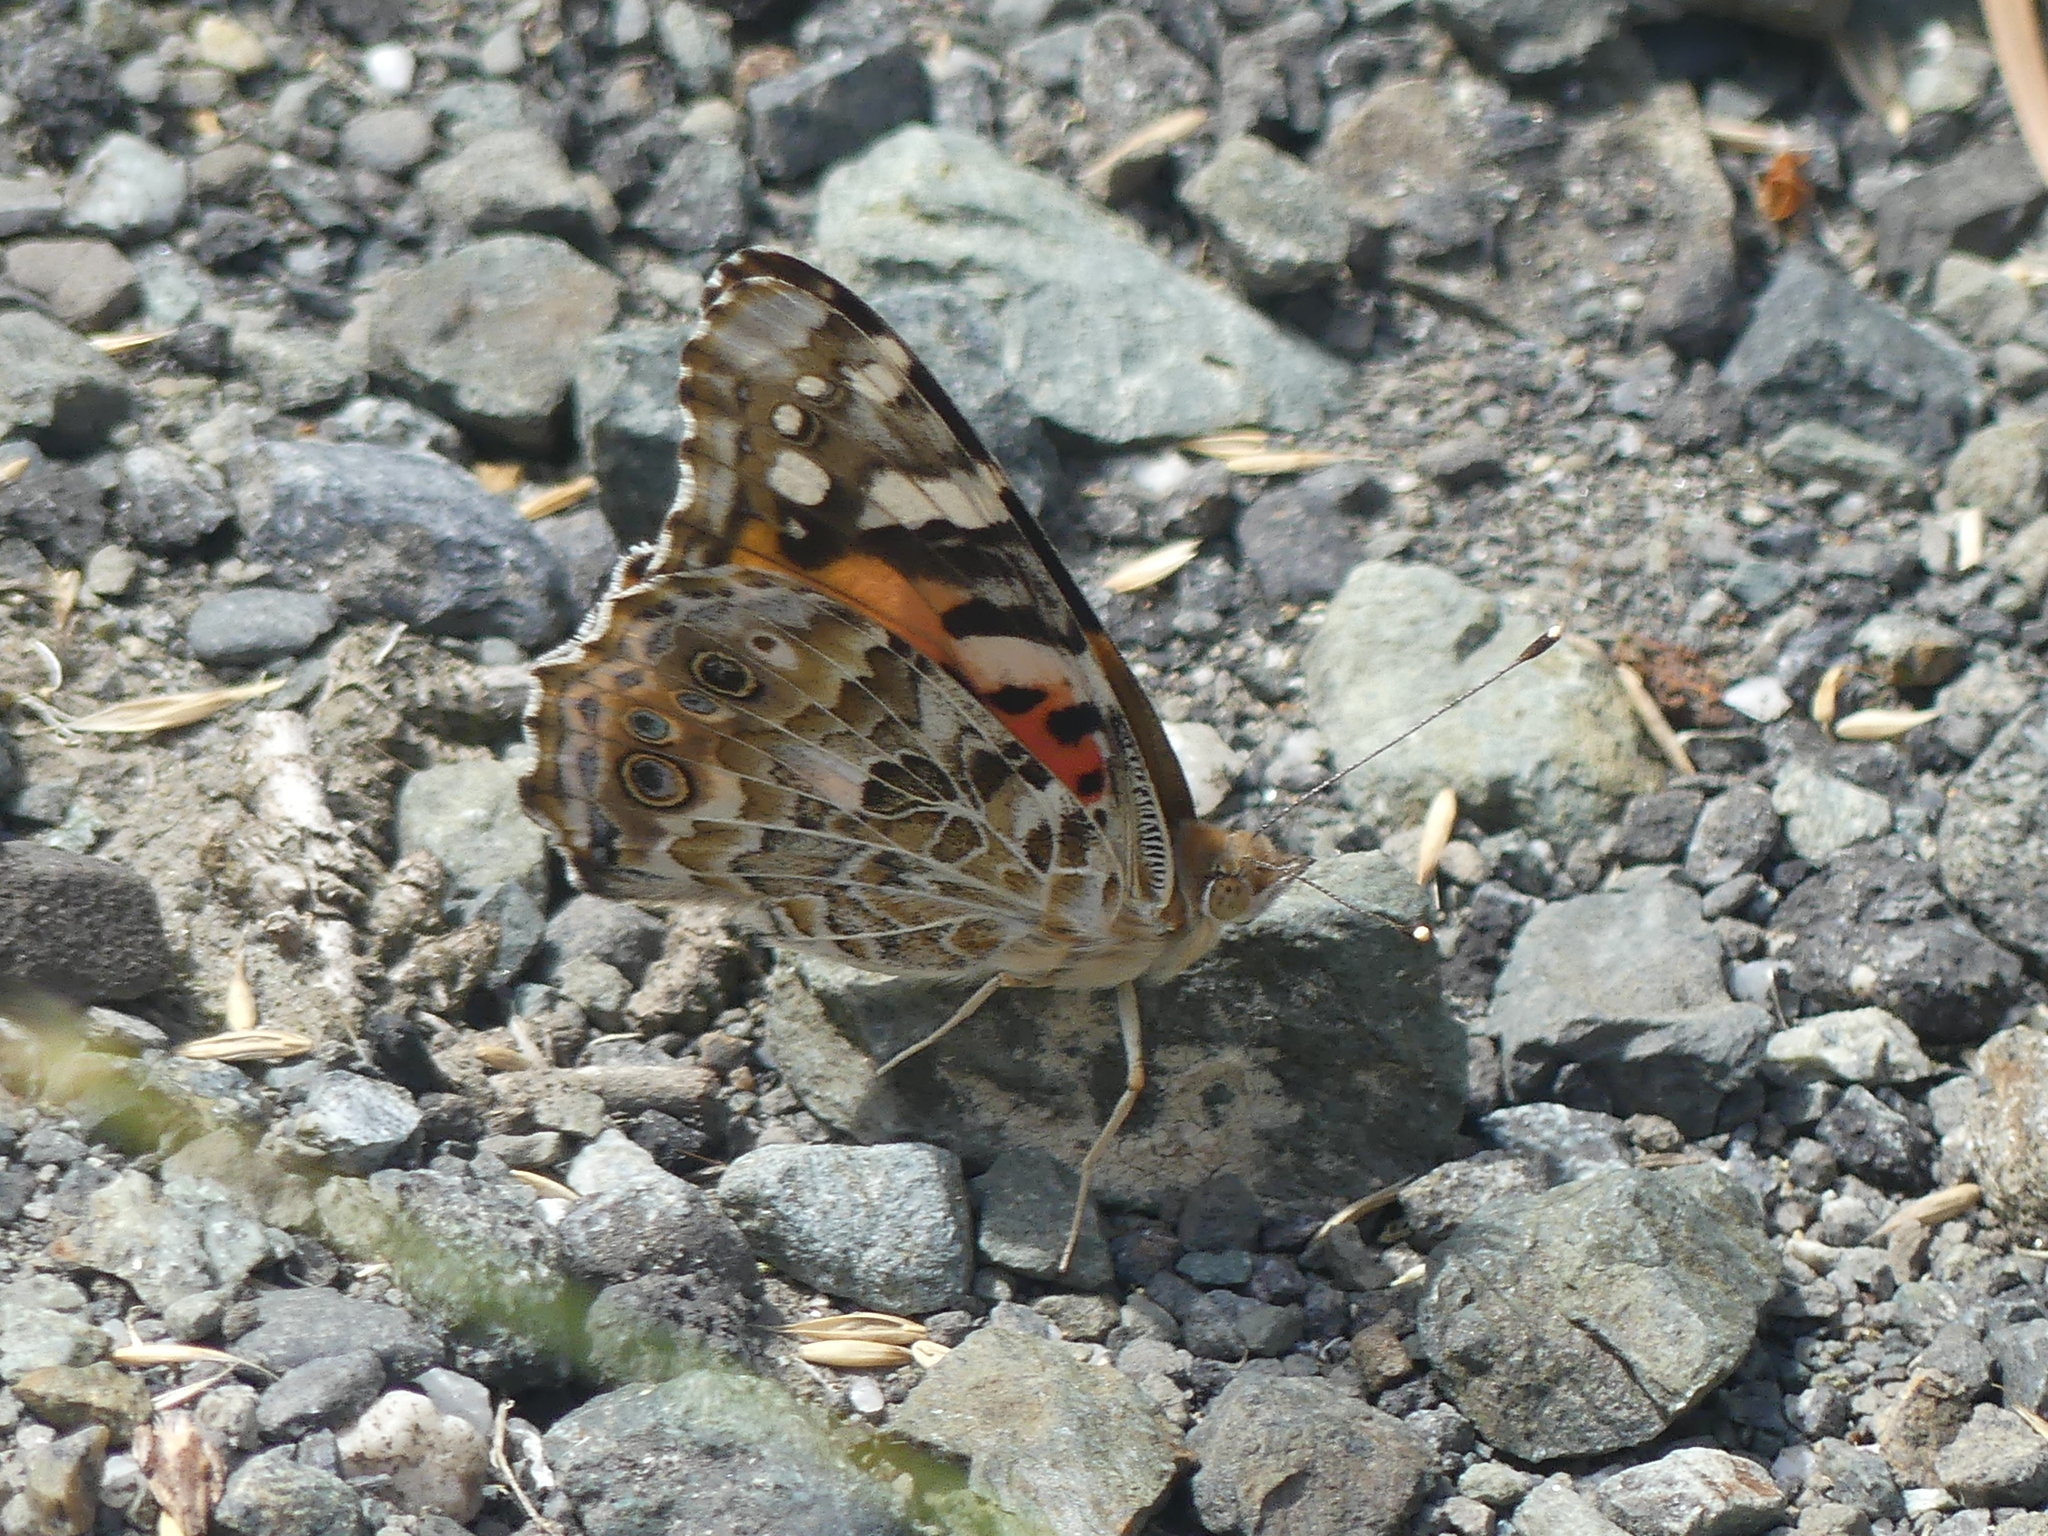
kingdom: Animalia
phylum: Arthropoda
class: Insecta
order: Lepidoptera
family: Nymphalidae
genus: Vanessa
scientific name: Vanessa cardui
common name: Painted lady
